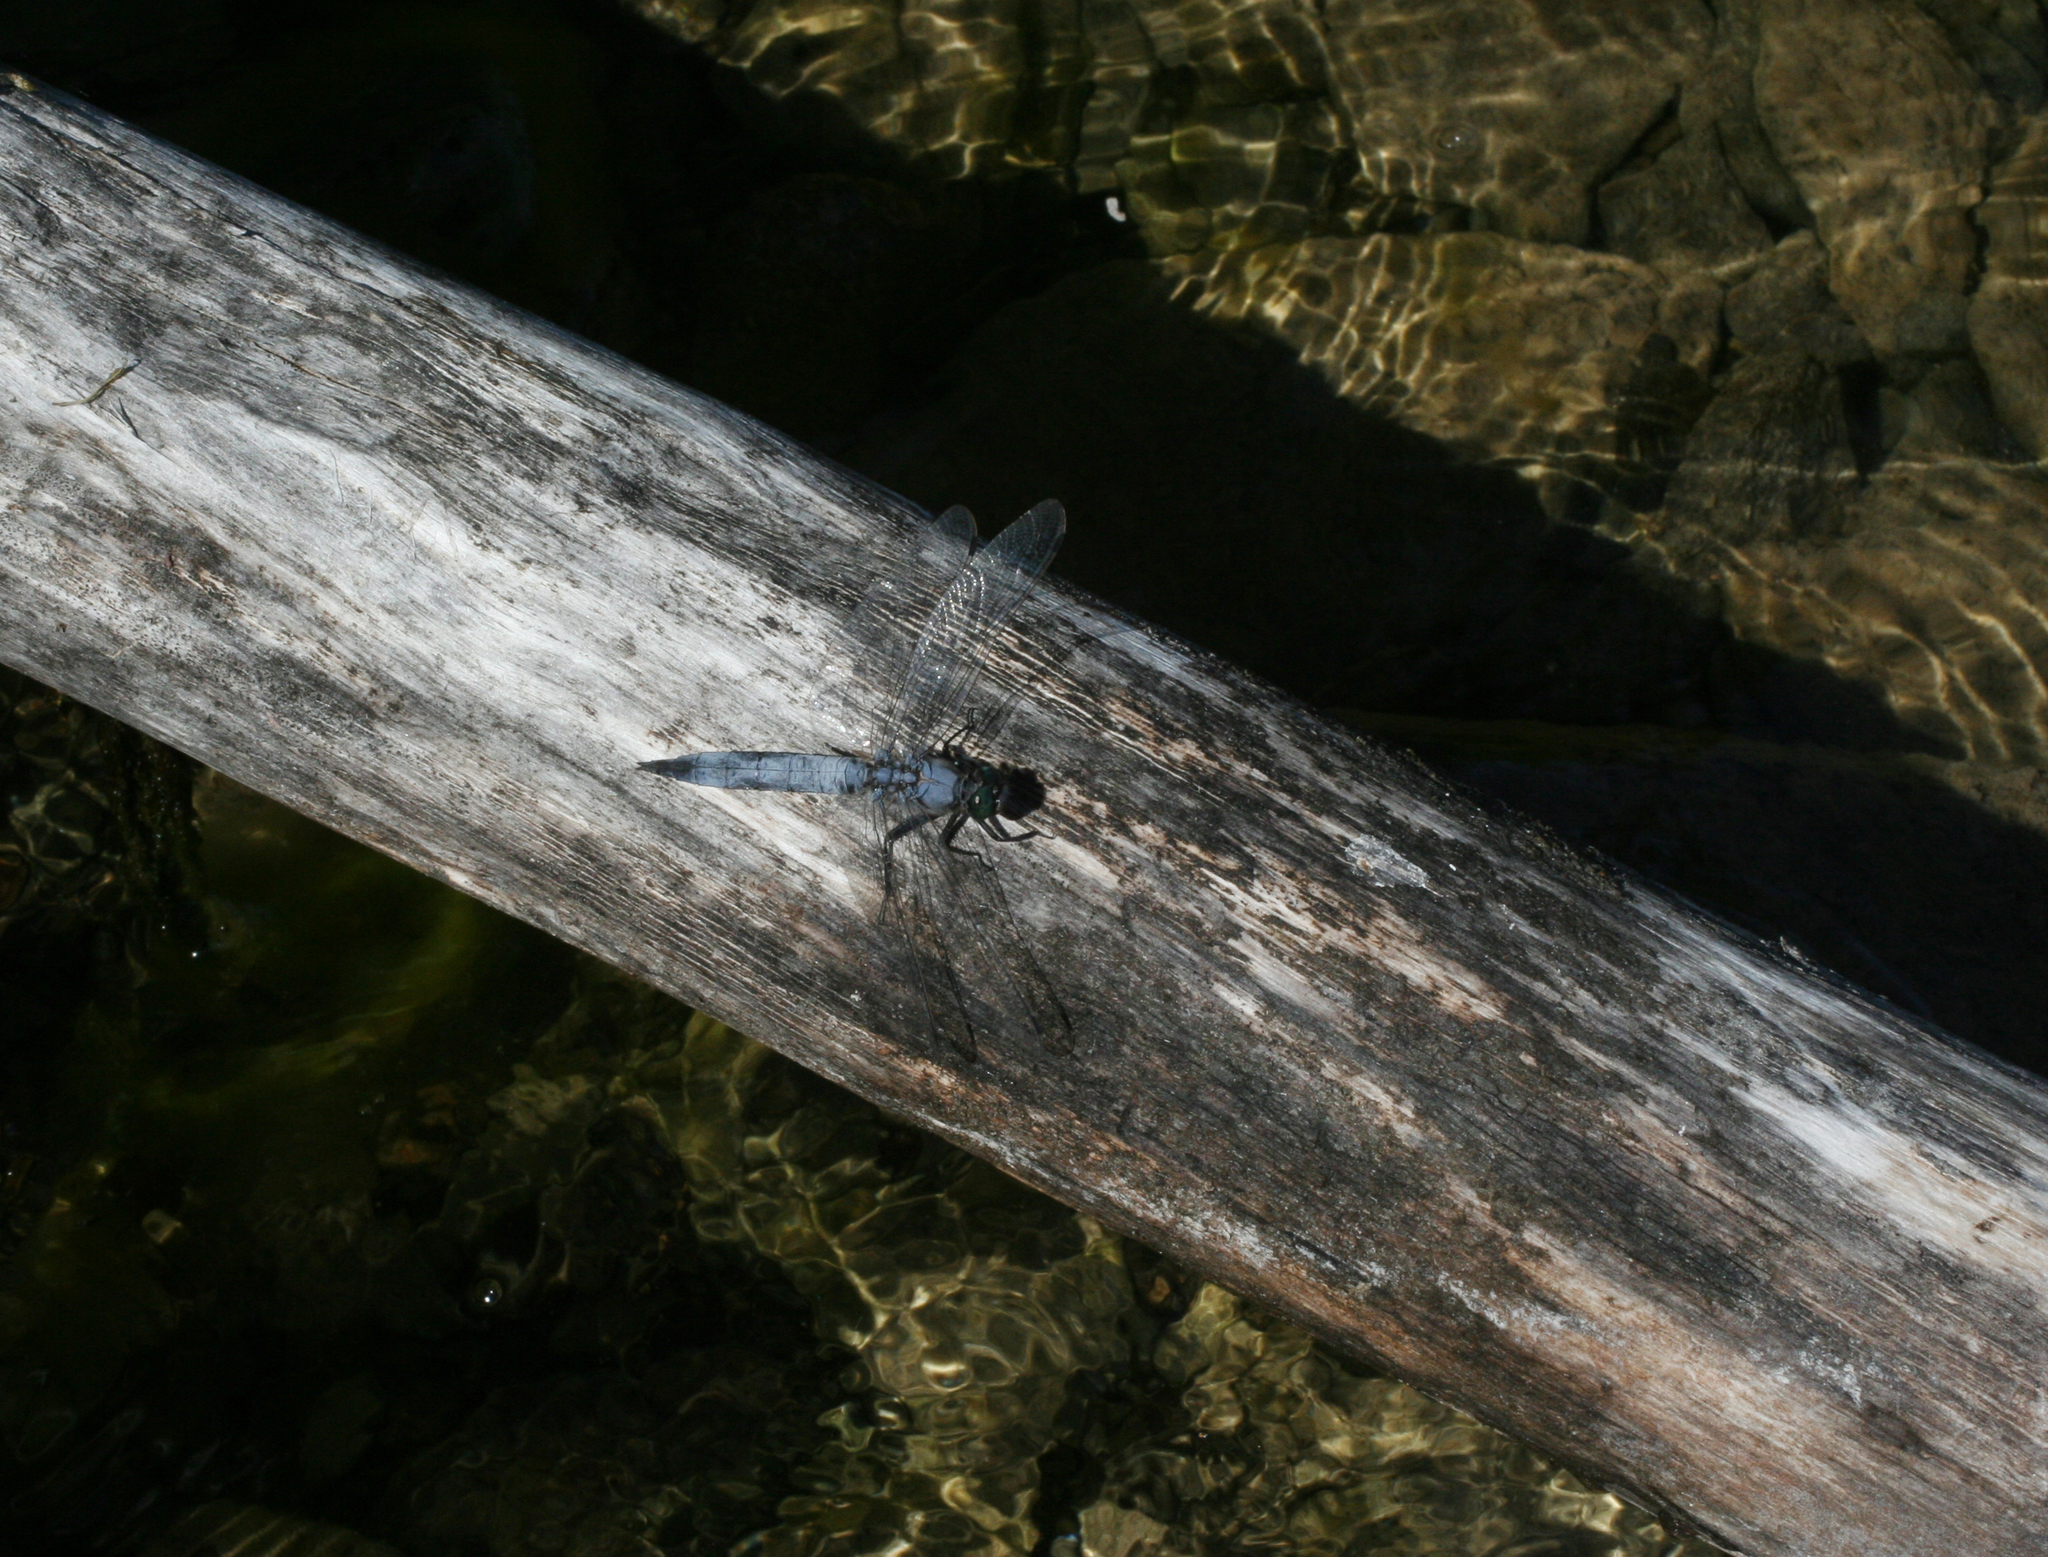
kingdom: Animalia
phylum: Arthropoda
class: Insecta
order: Odonata
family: Libellulidae
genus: Orthetrum
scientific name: Orthetrum cancellatum
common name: Black-tailed skimmer
